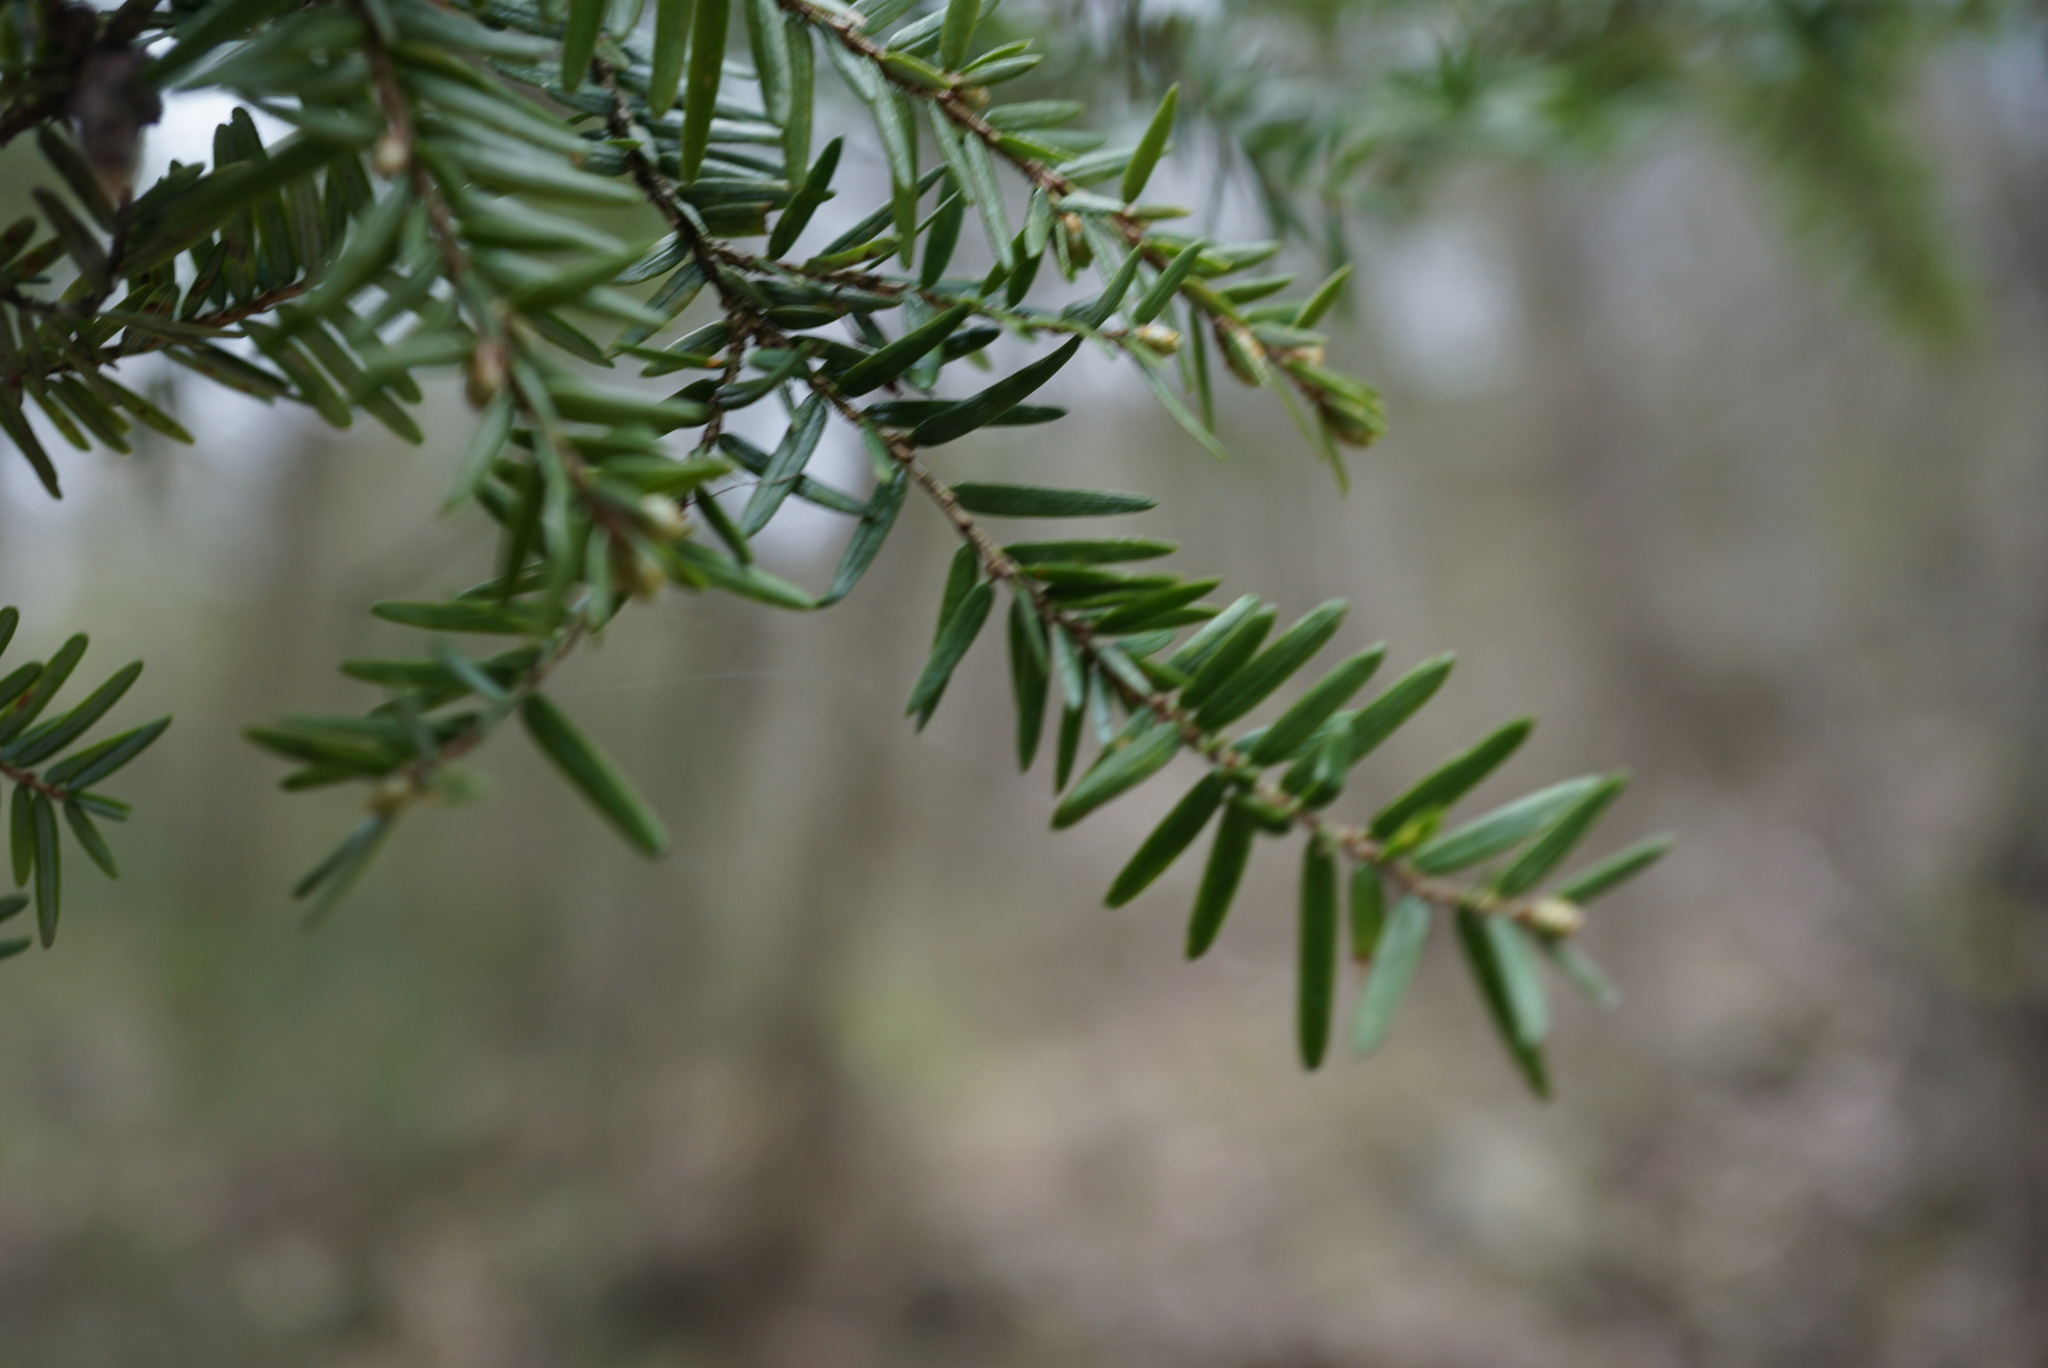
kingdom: Plantae
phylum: Tracheophyta
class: Pinopsida
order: Pinales
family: Pinaceae
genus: Tsuga
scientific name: Tsuga canadensis
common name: Eastern hemlock
